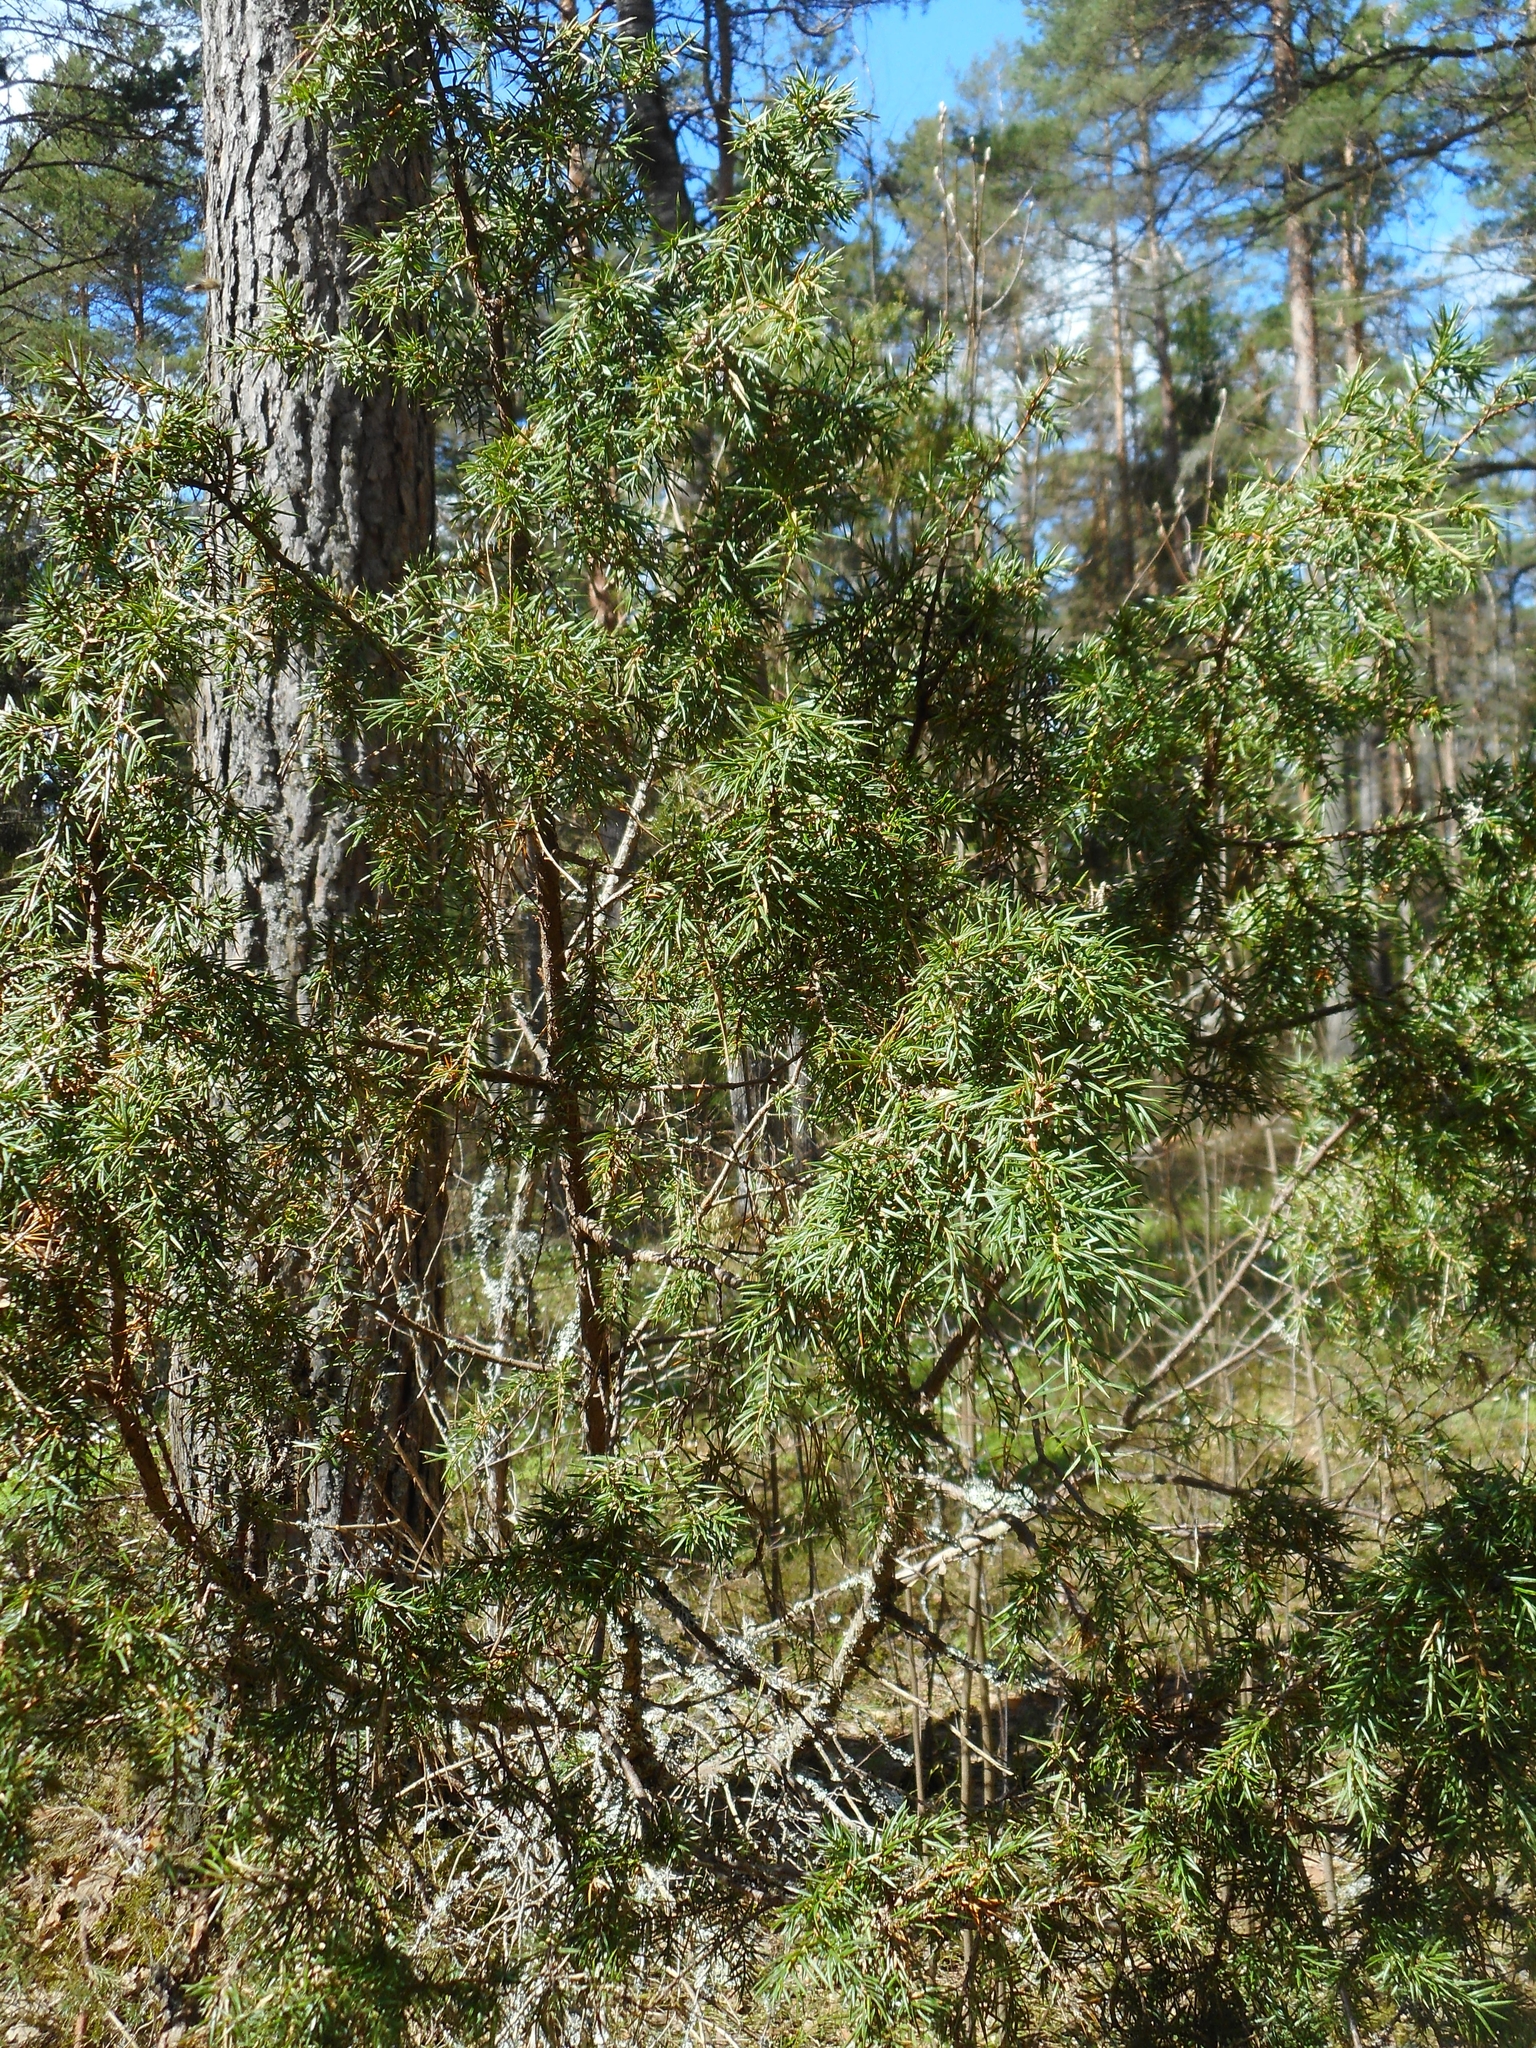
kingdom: Plantae
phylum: Tracheophyta
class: Pinopsida
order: Pinales
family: Cupressaceae
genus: Juniperus
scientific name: Juniperus communis
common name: Common juniper
